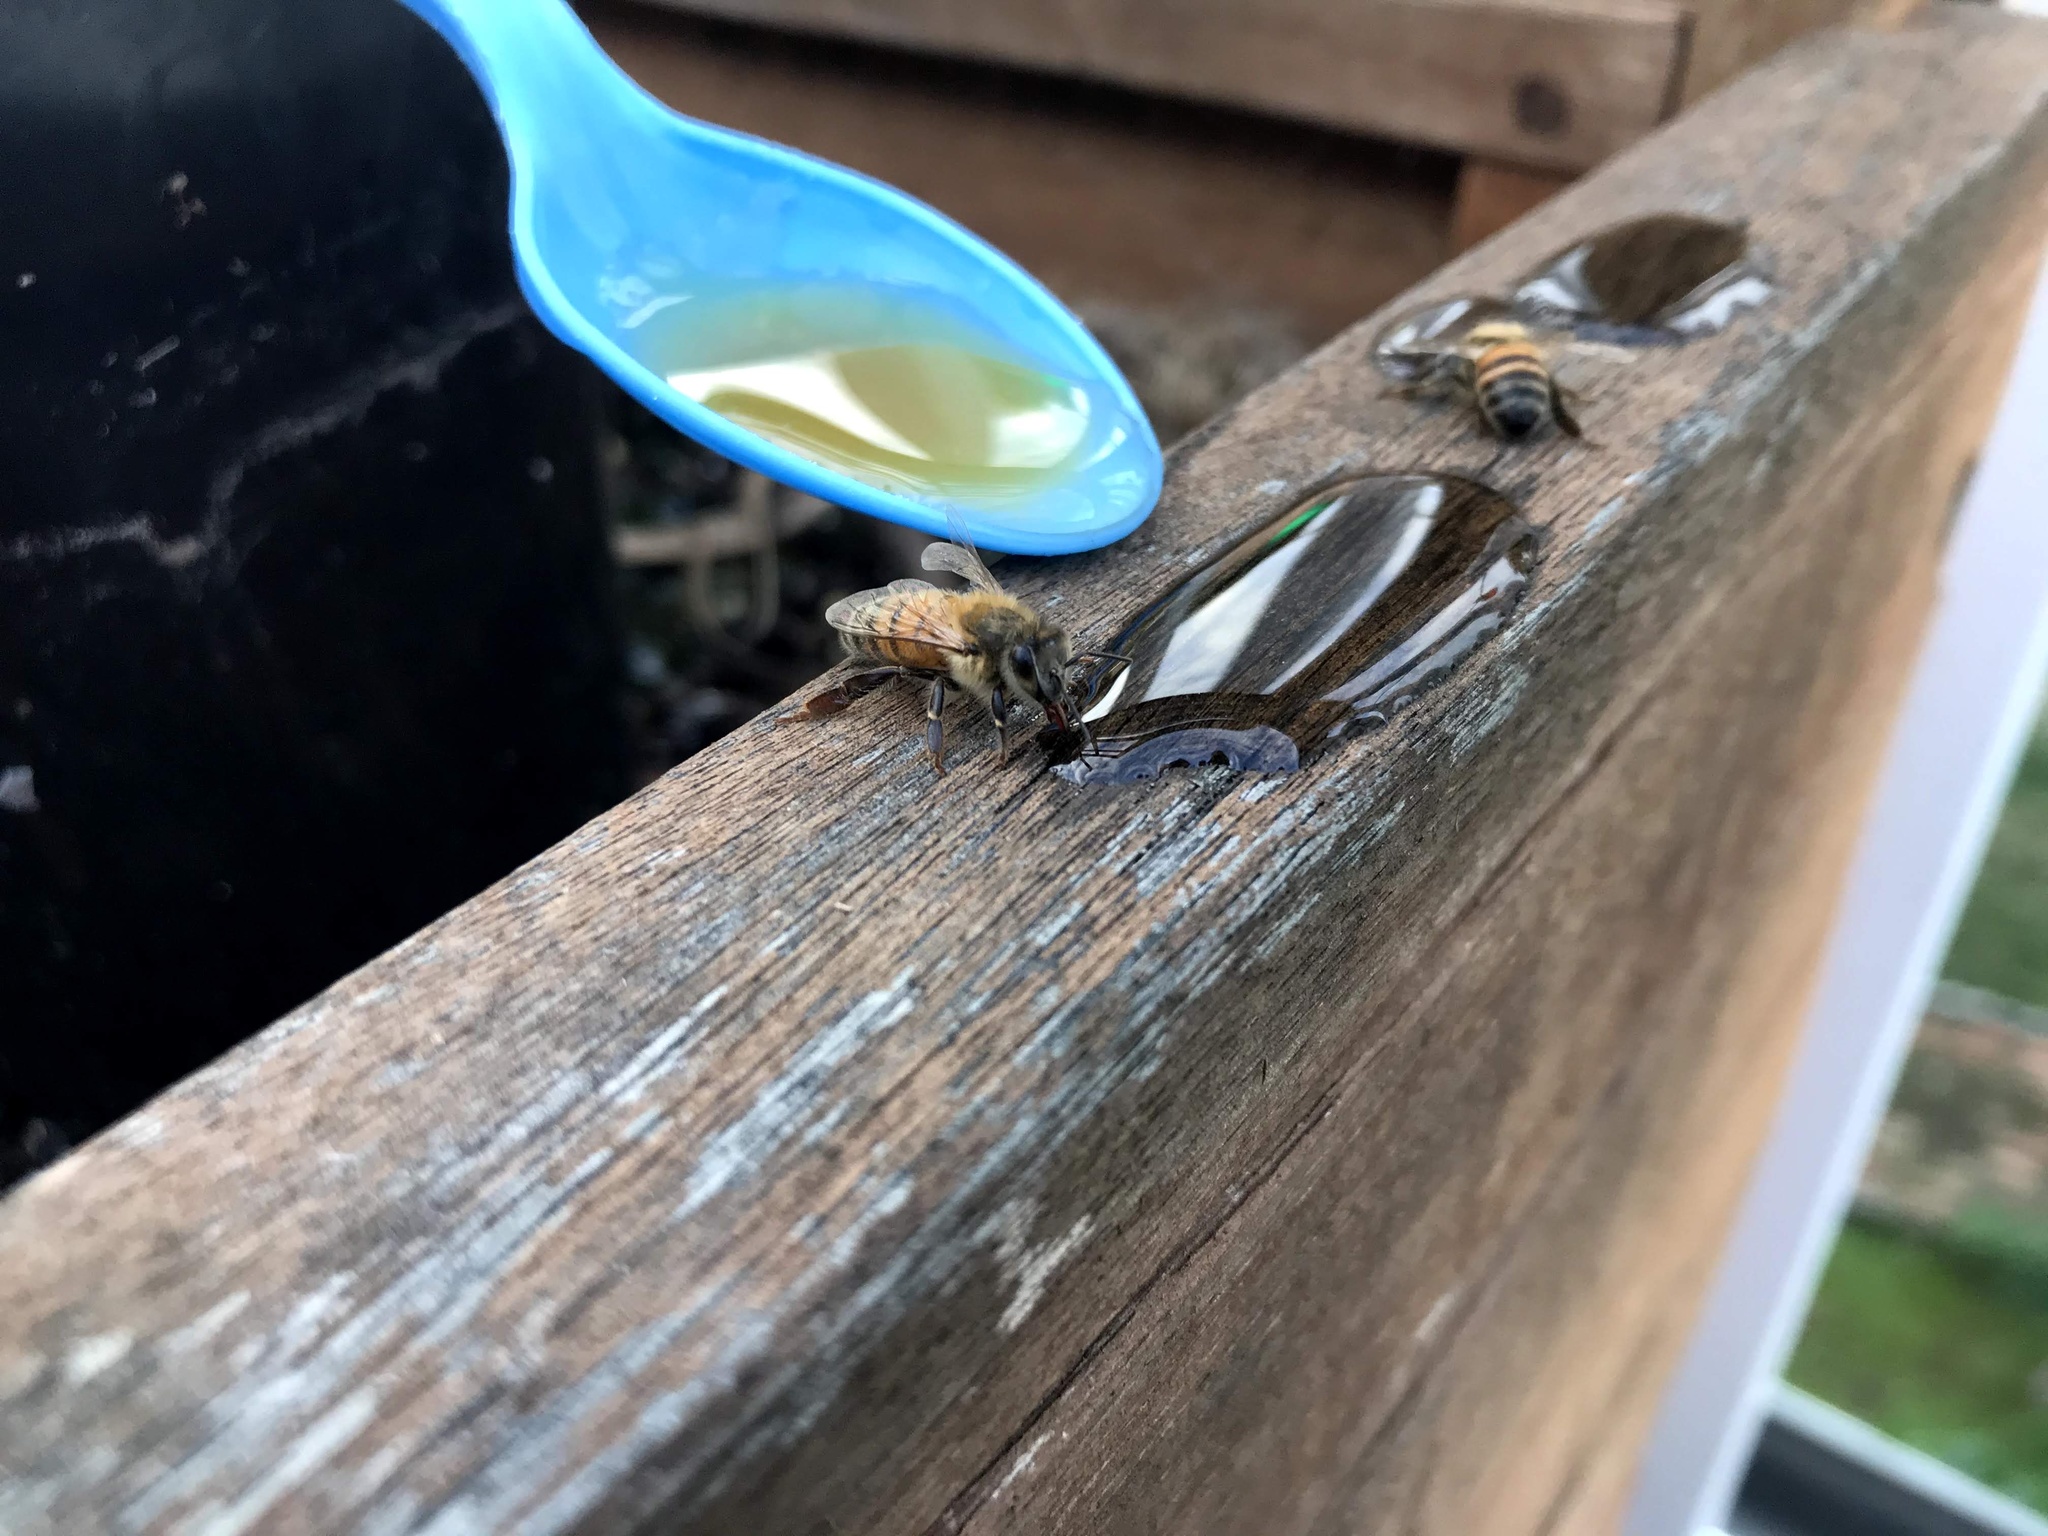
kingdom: Animalia
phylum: Arthropoda
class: Insecta
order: Hymenoptera
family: Apidae
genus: Apis
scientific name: Apis mellifera
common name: Honey bee
